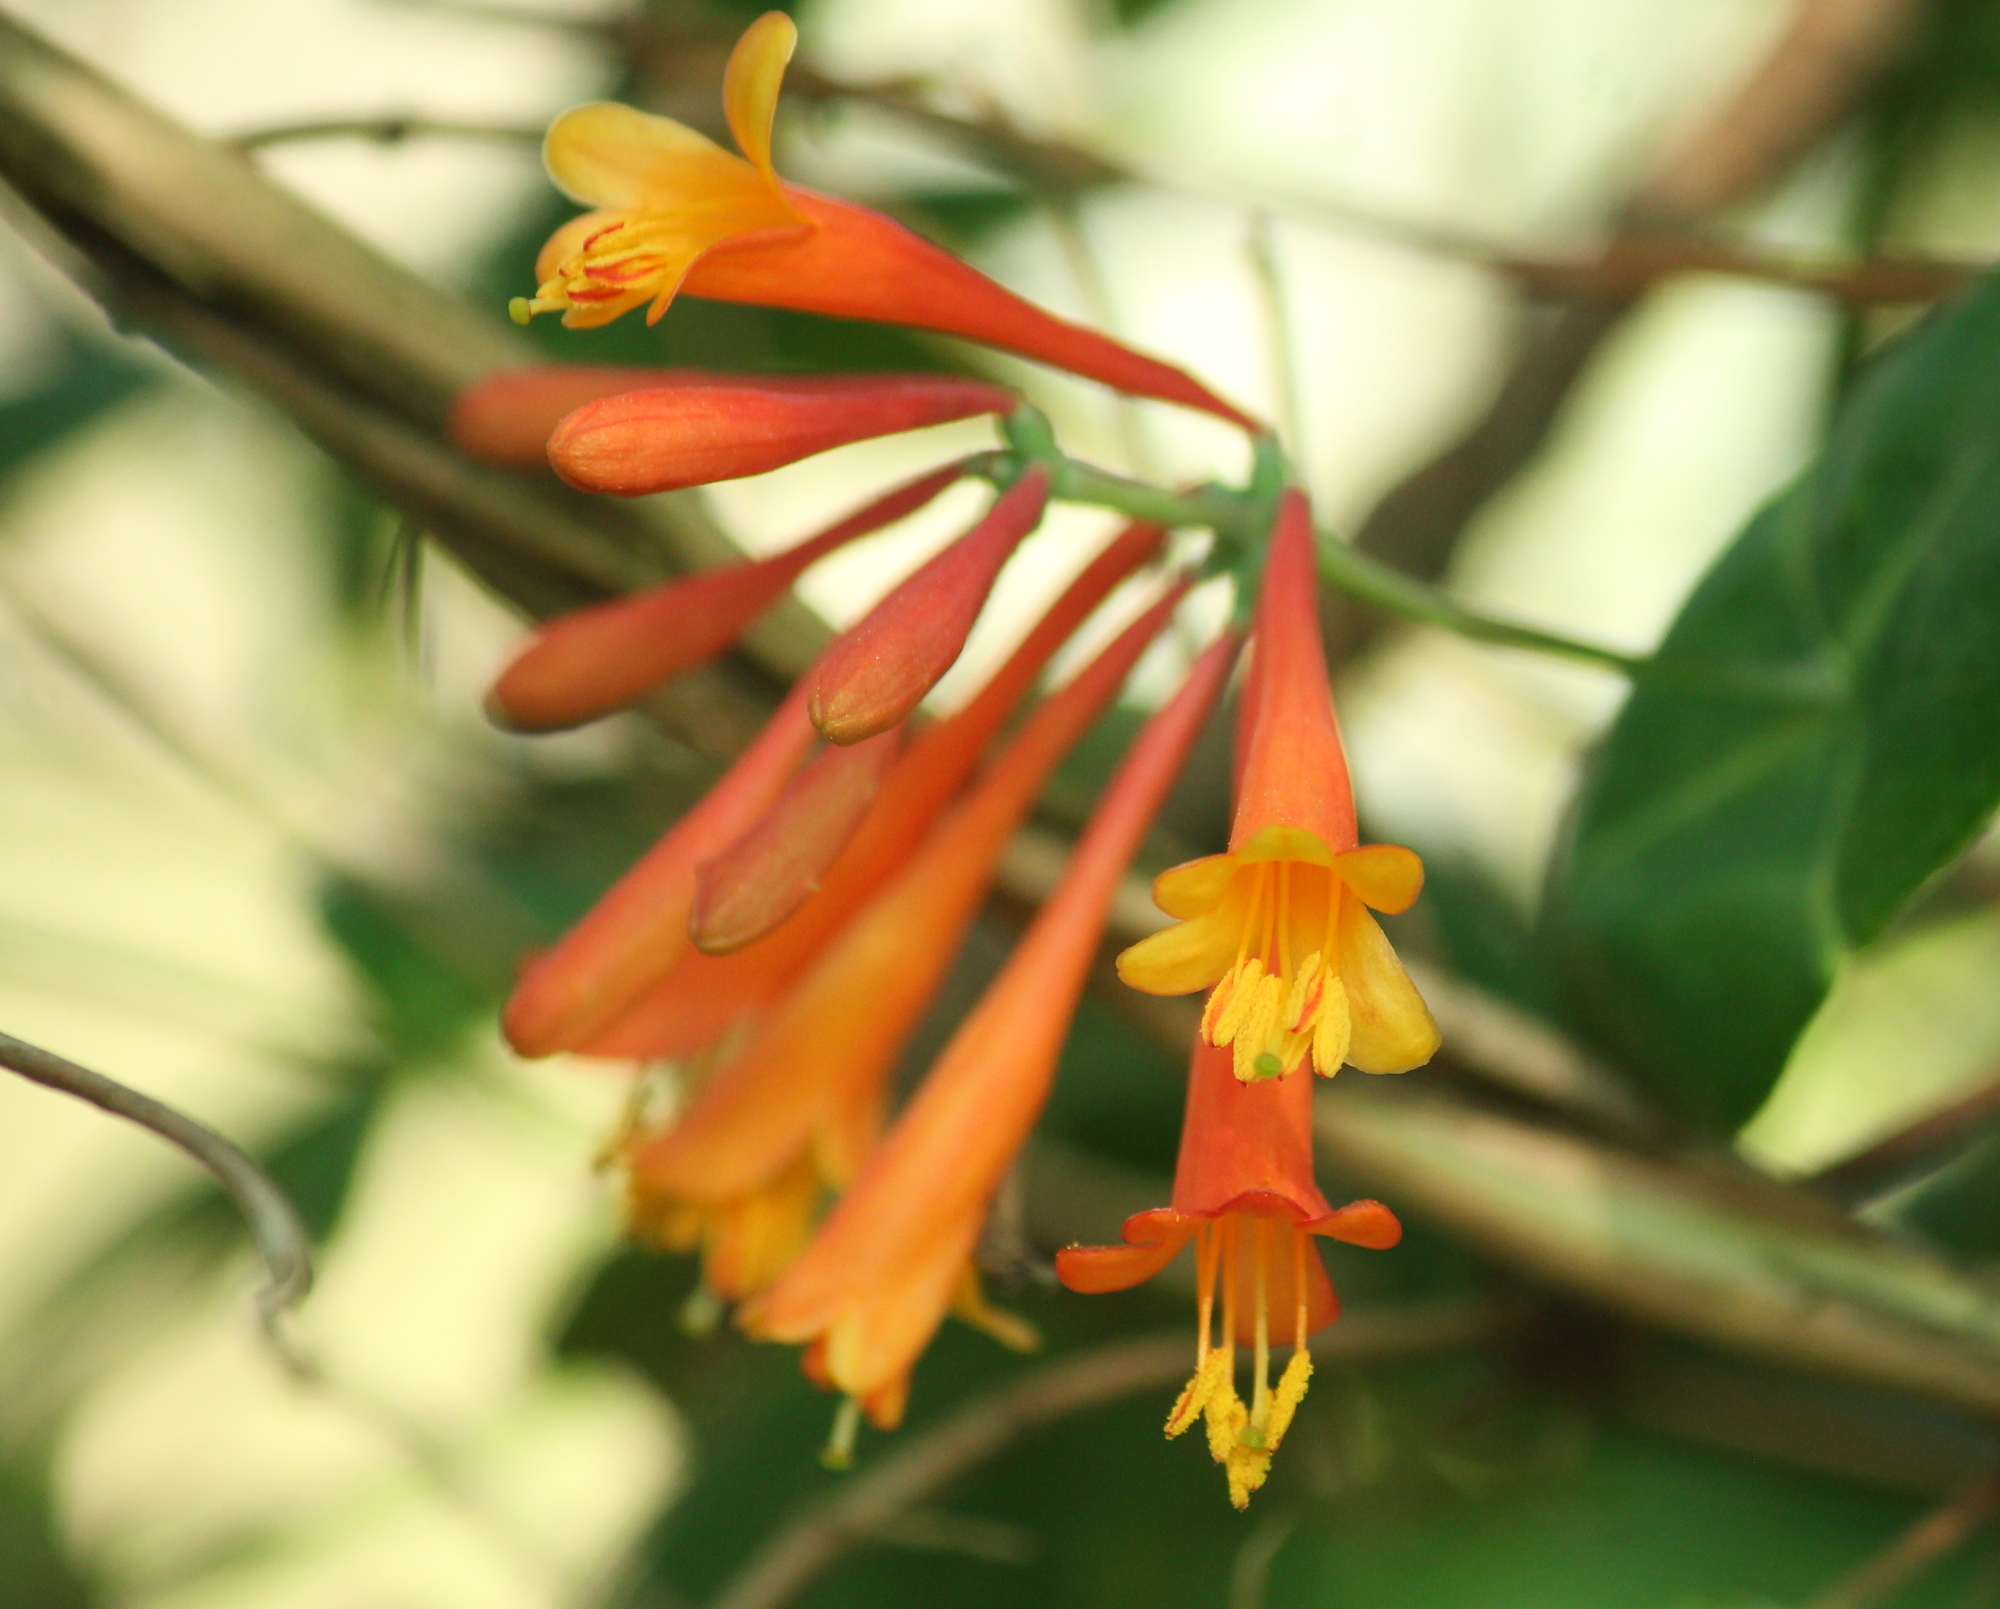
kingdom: Plantae
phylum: Tracheophyta
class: Magnoliopsida
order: Dipsacales
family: Caprifoliaceae
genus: Lonicera
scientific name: Lonicera sempervirens
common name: Coral honeysuckle
